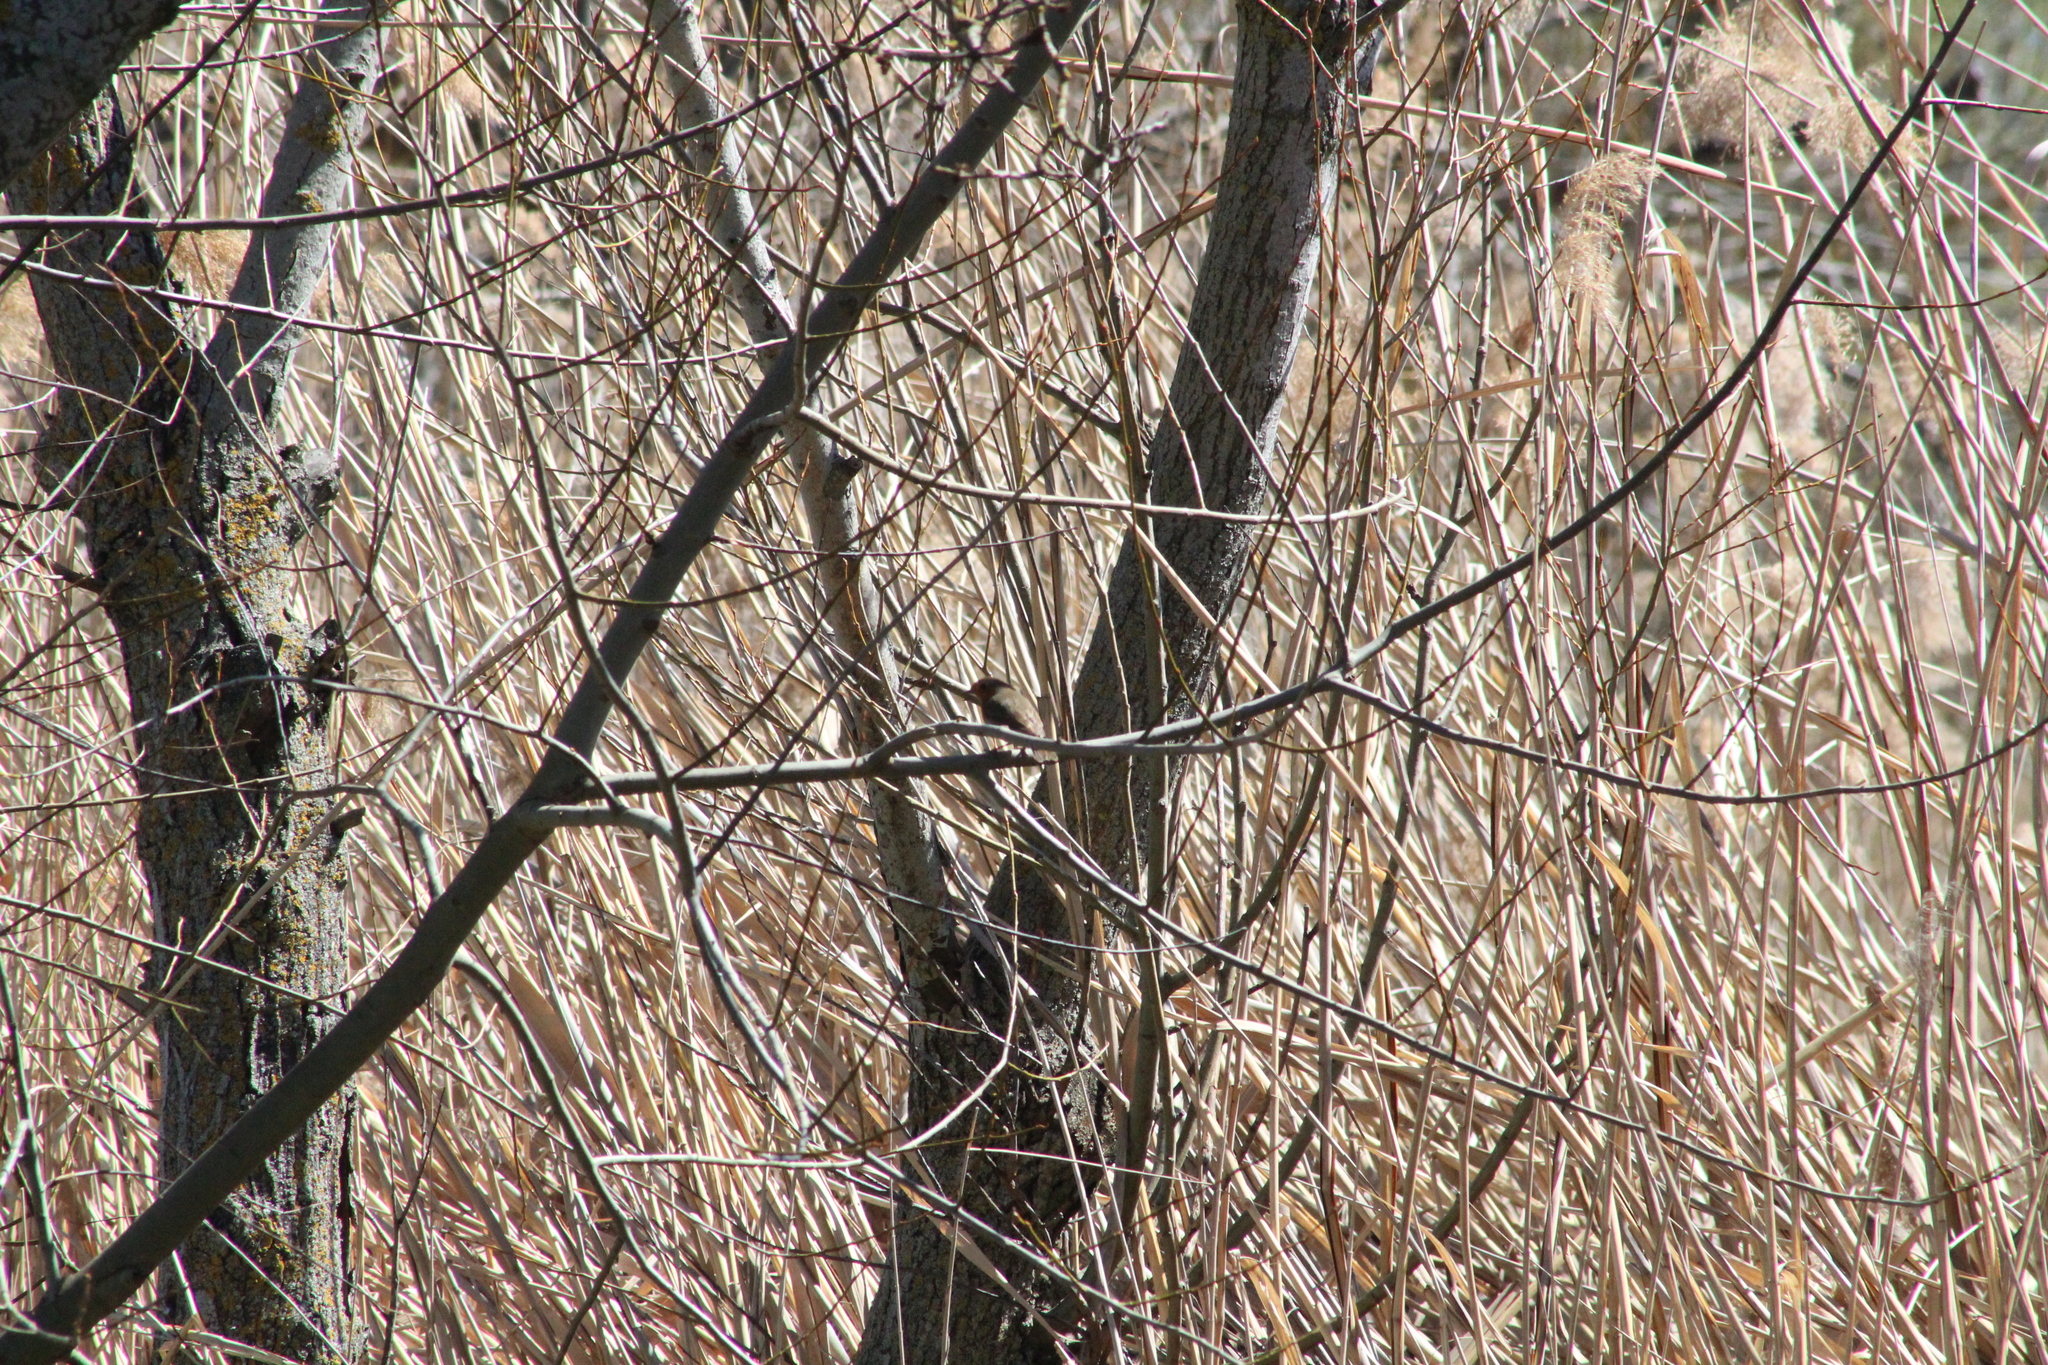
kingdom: Animalia
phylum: Chordata
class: Aves
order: Passeriformes
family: Muscicapidae
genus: Erithacus
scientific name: Erithacus rubecula
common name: European robin
